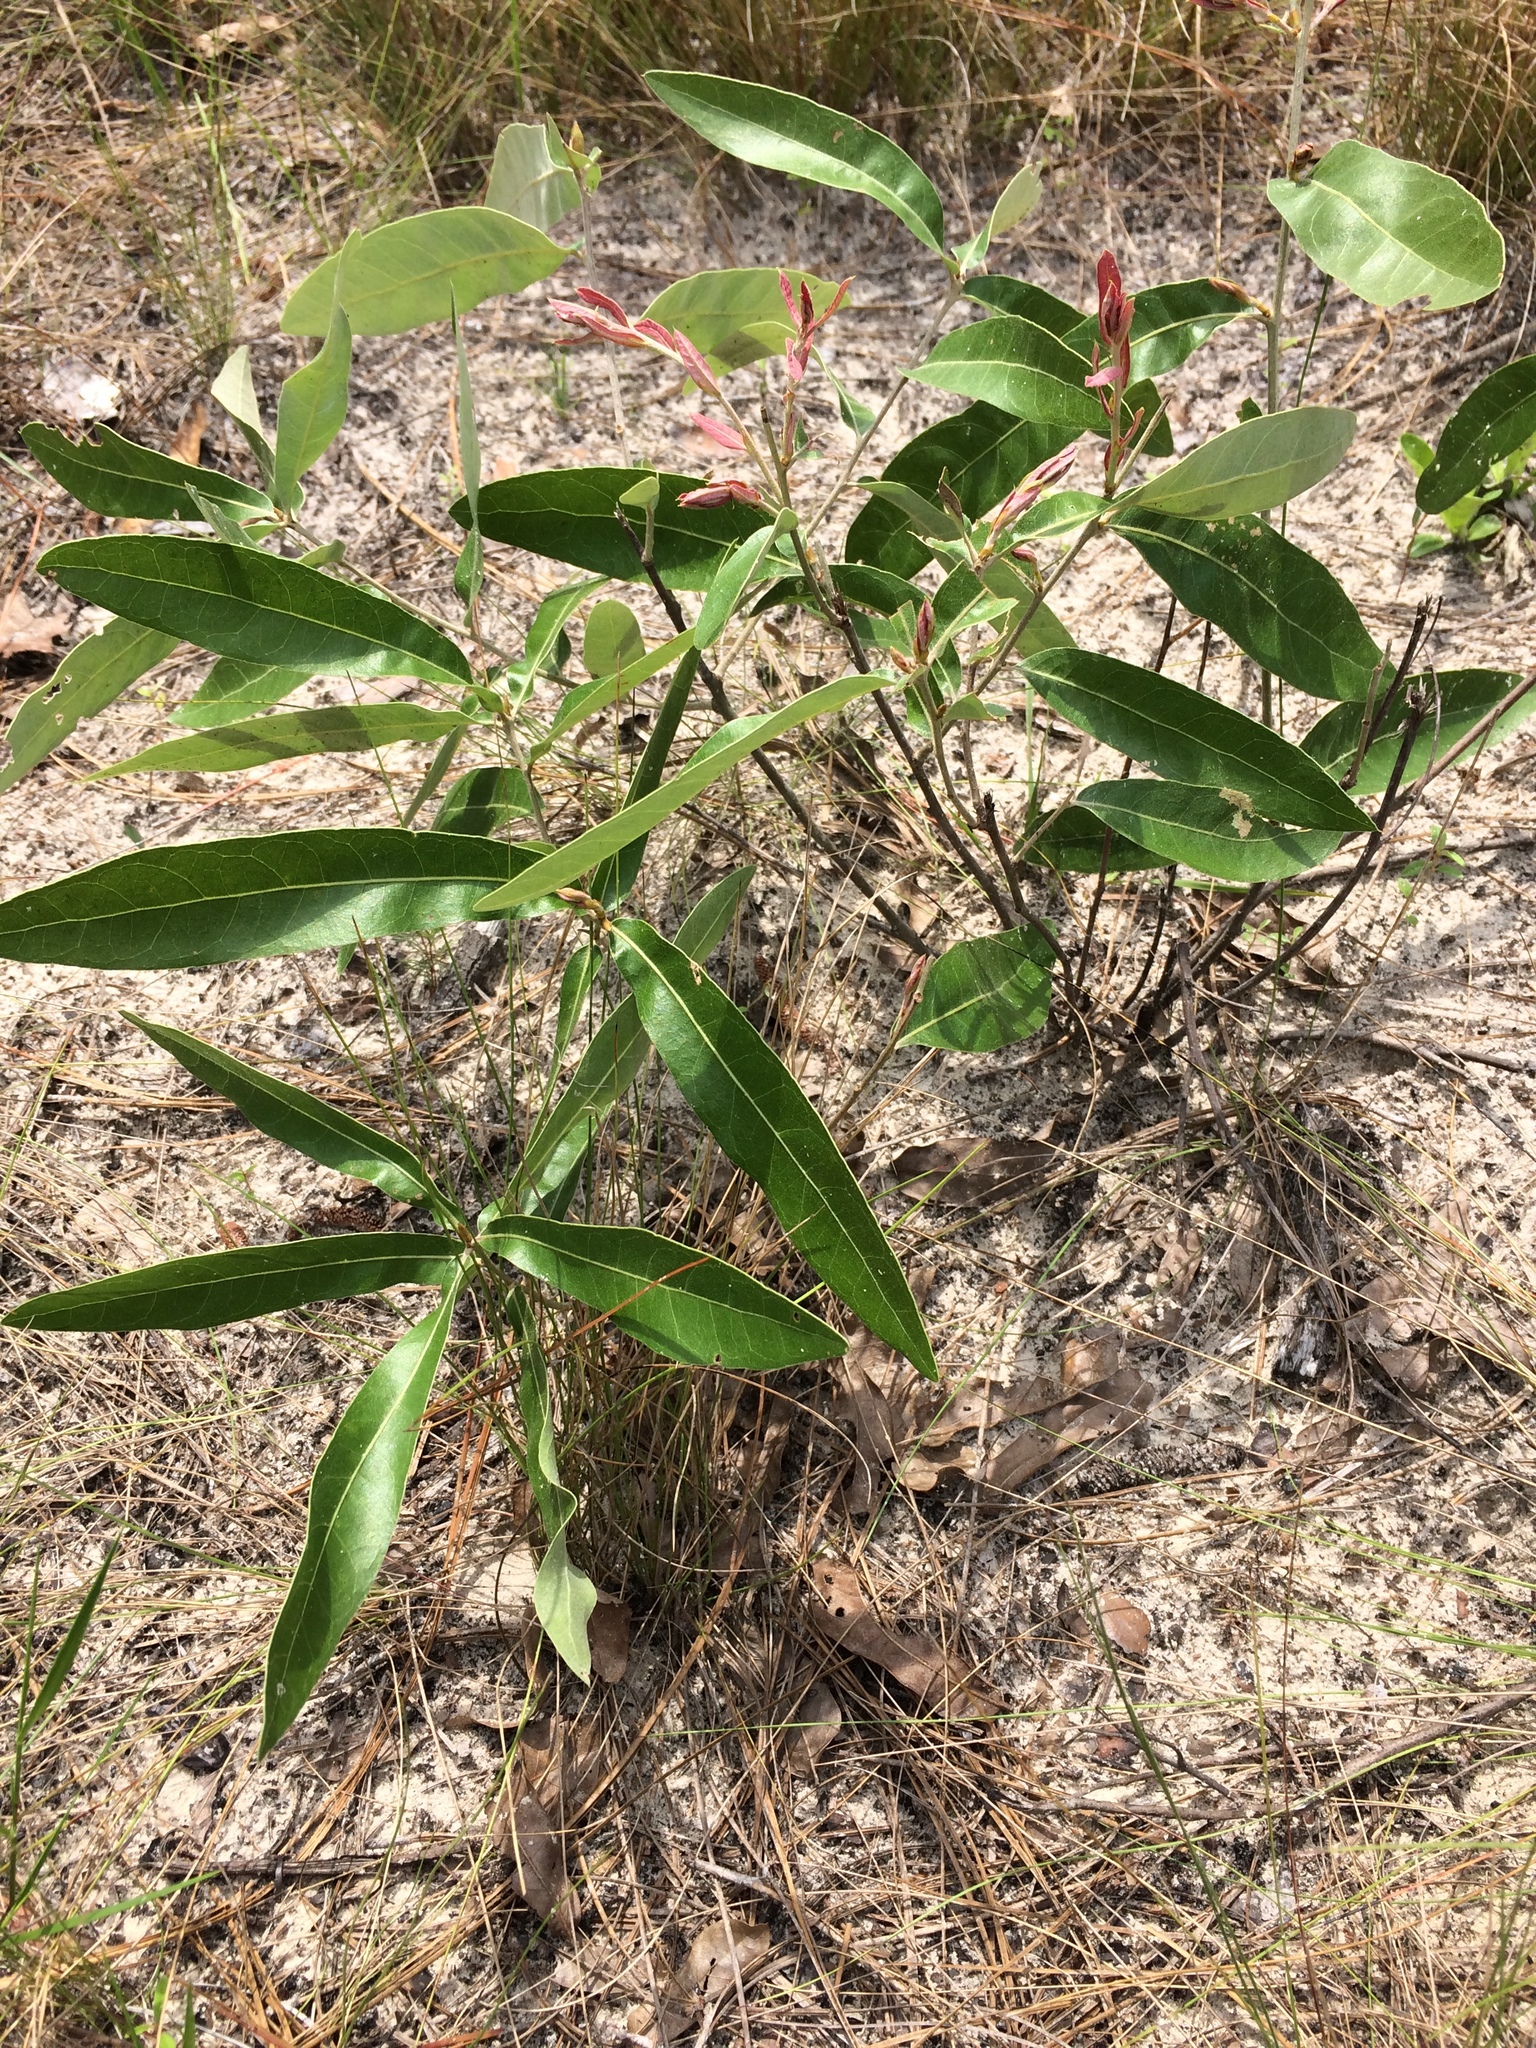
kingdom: Plantae
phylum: Tracheophyta
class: Magnoliopsida
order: Fagales
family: Fagaceae
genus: Quercus
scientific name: Quercus incana
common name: Bluejack oak
